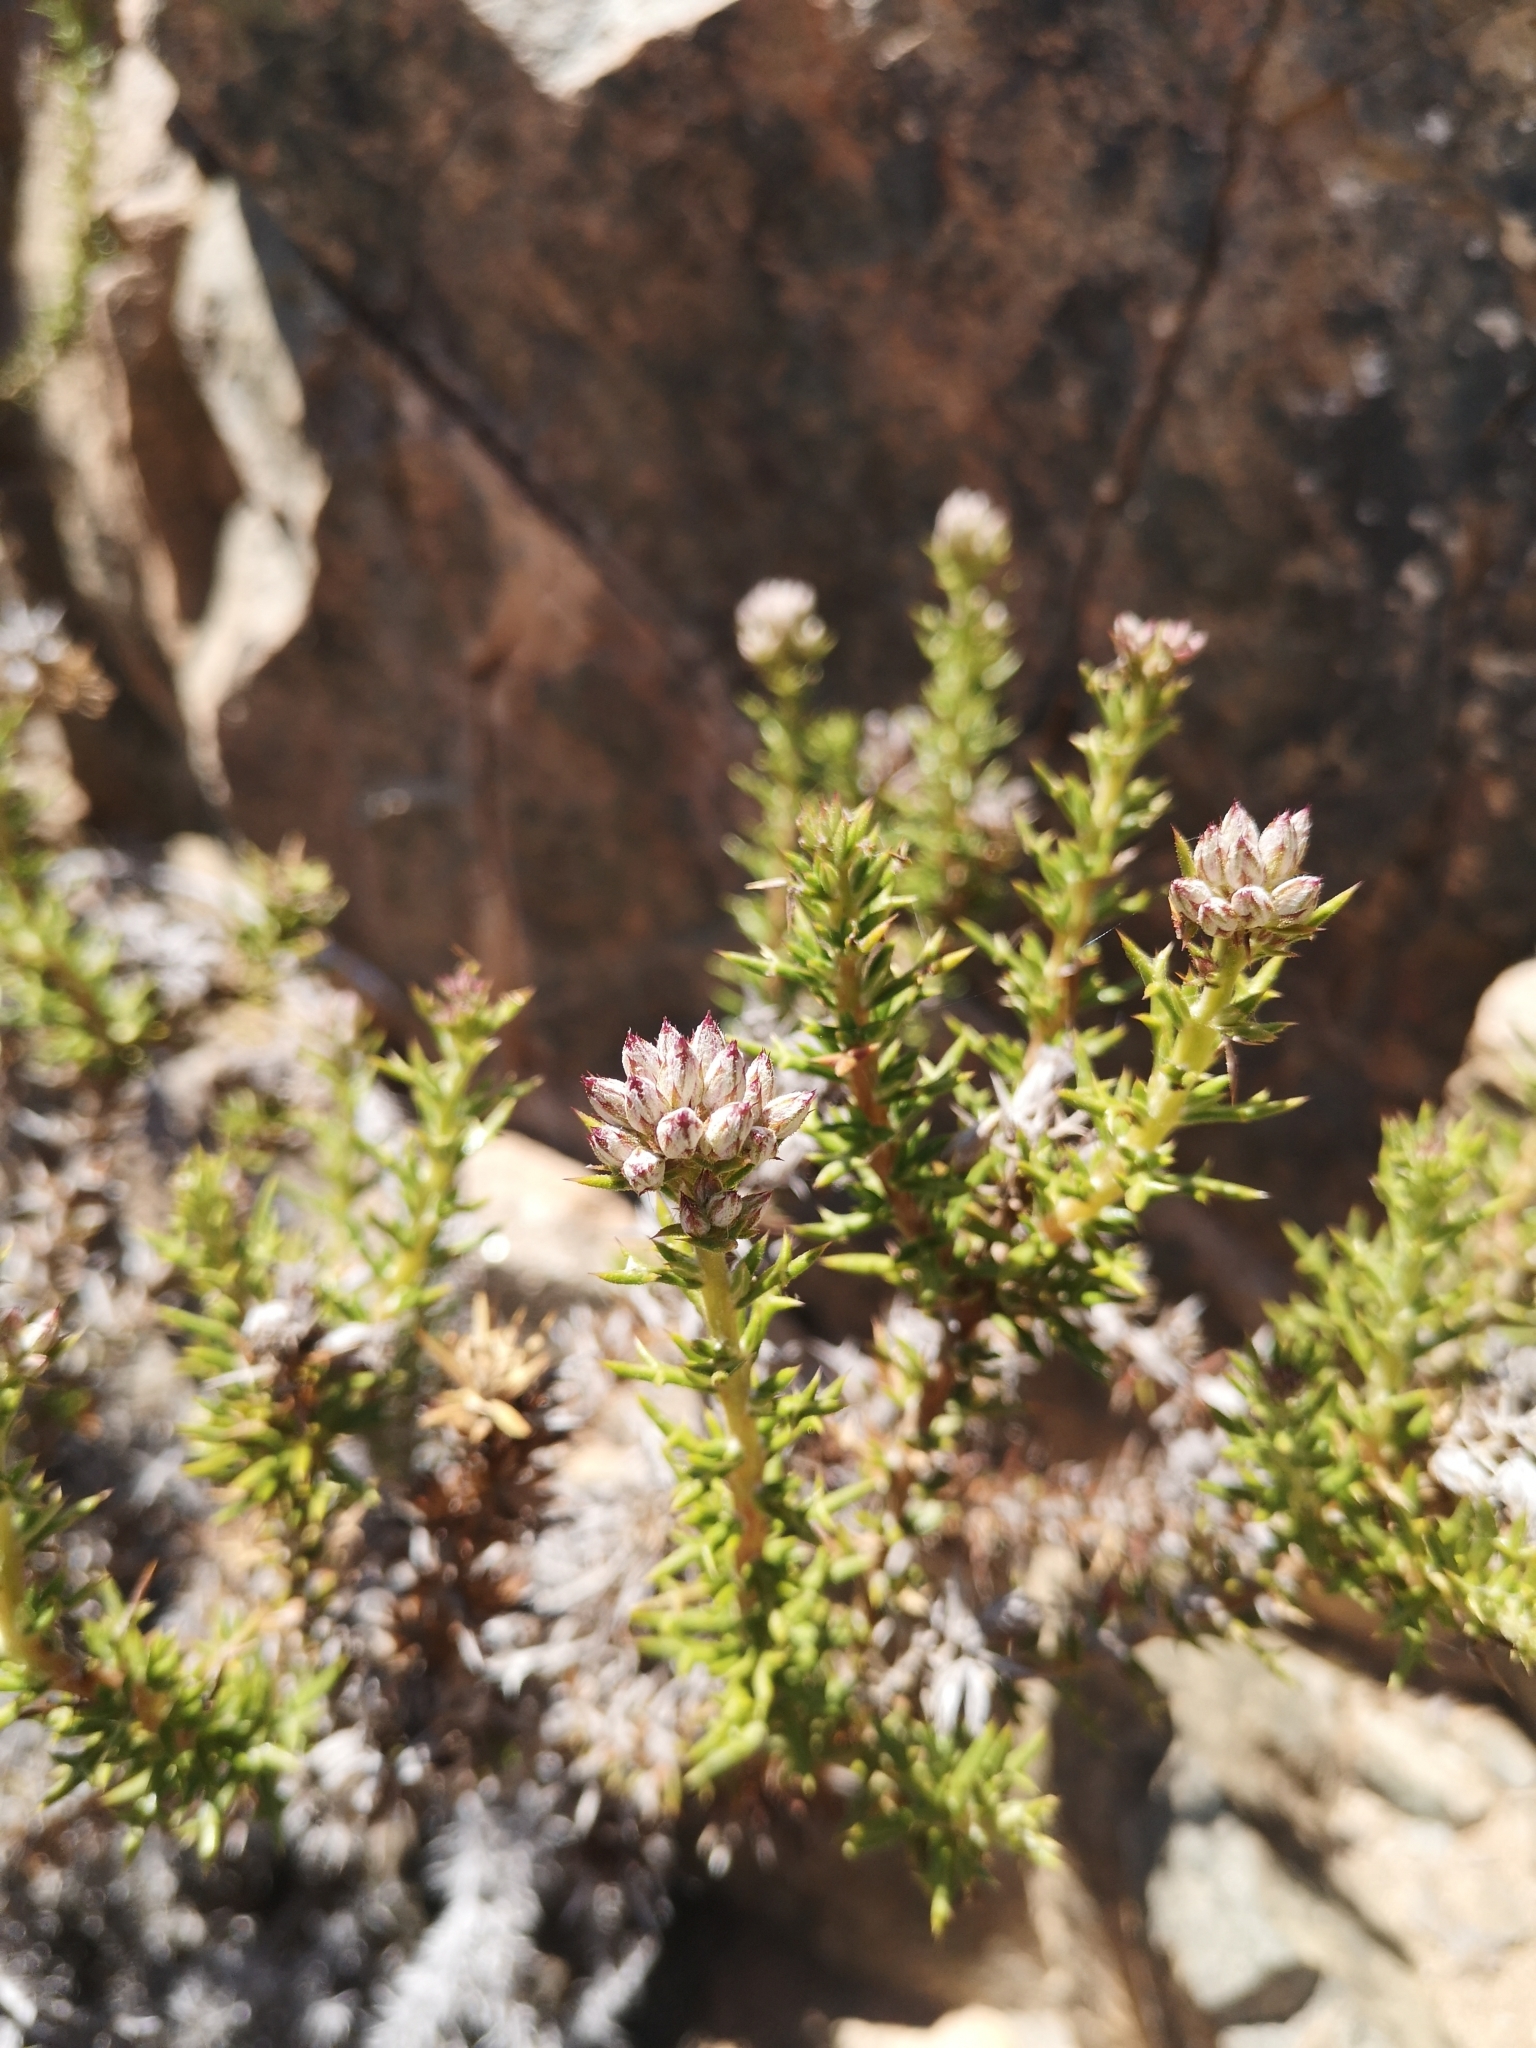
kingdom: Plantae
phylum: Tracheophyta
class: Magnoliopsida
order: Asterales
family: Asteraceae
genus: Oxyphyllum
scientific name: Oxyphyllum ulicinum
